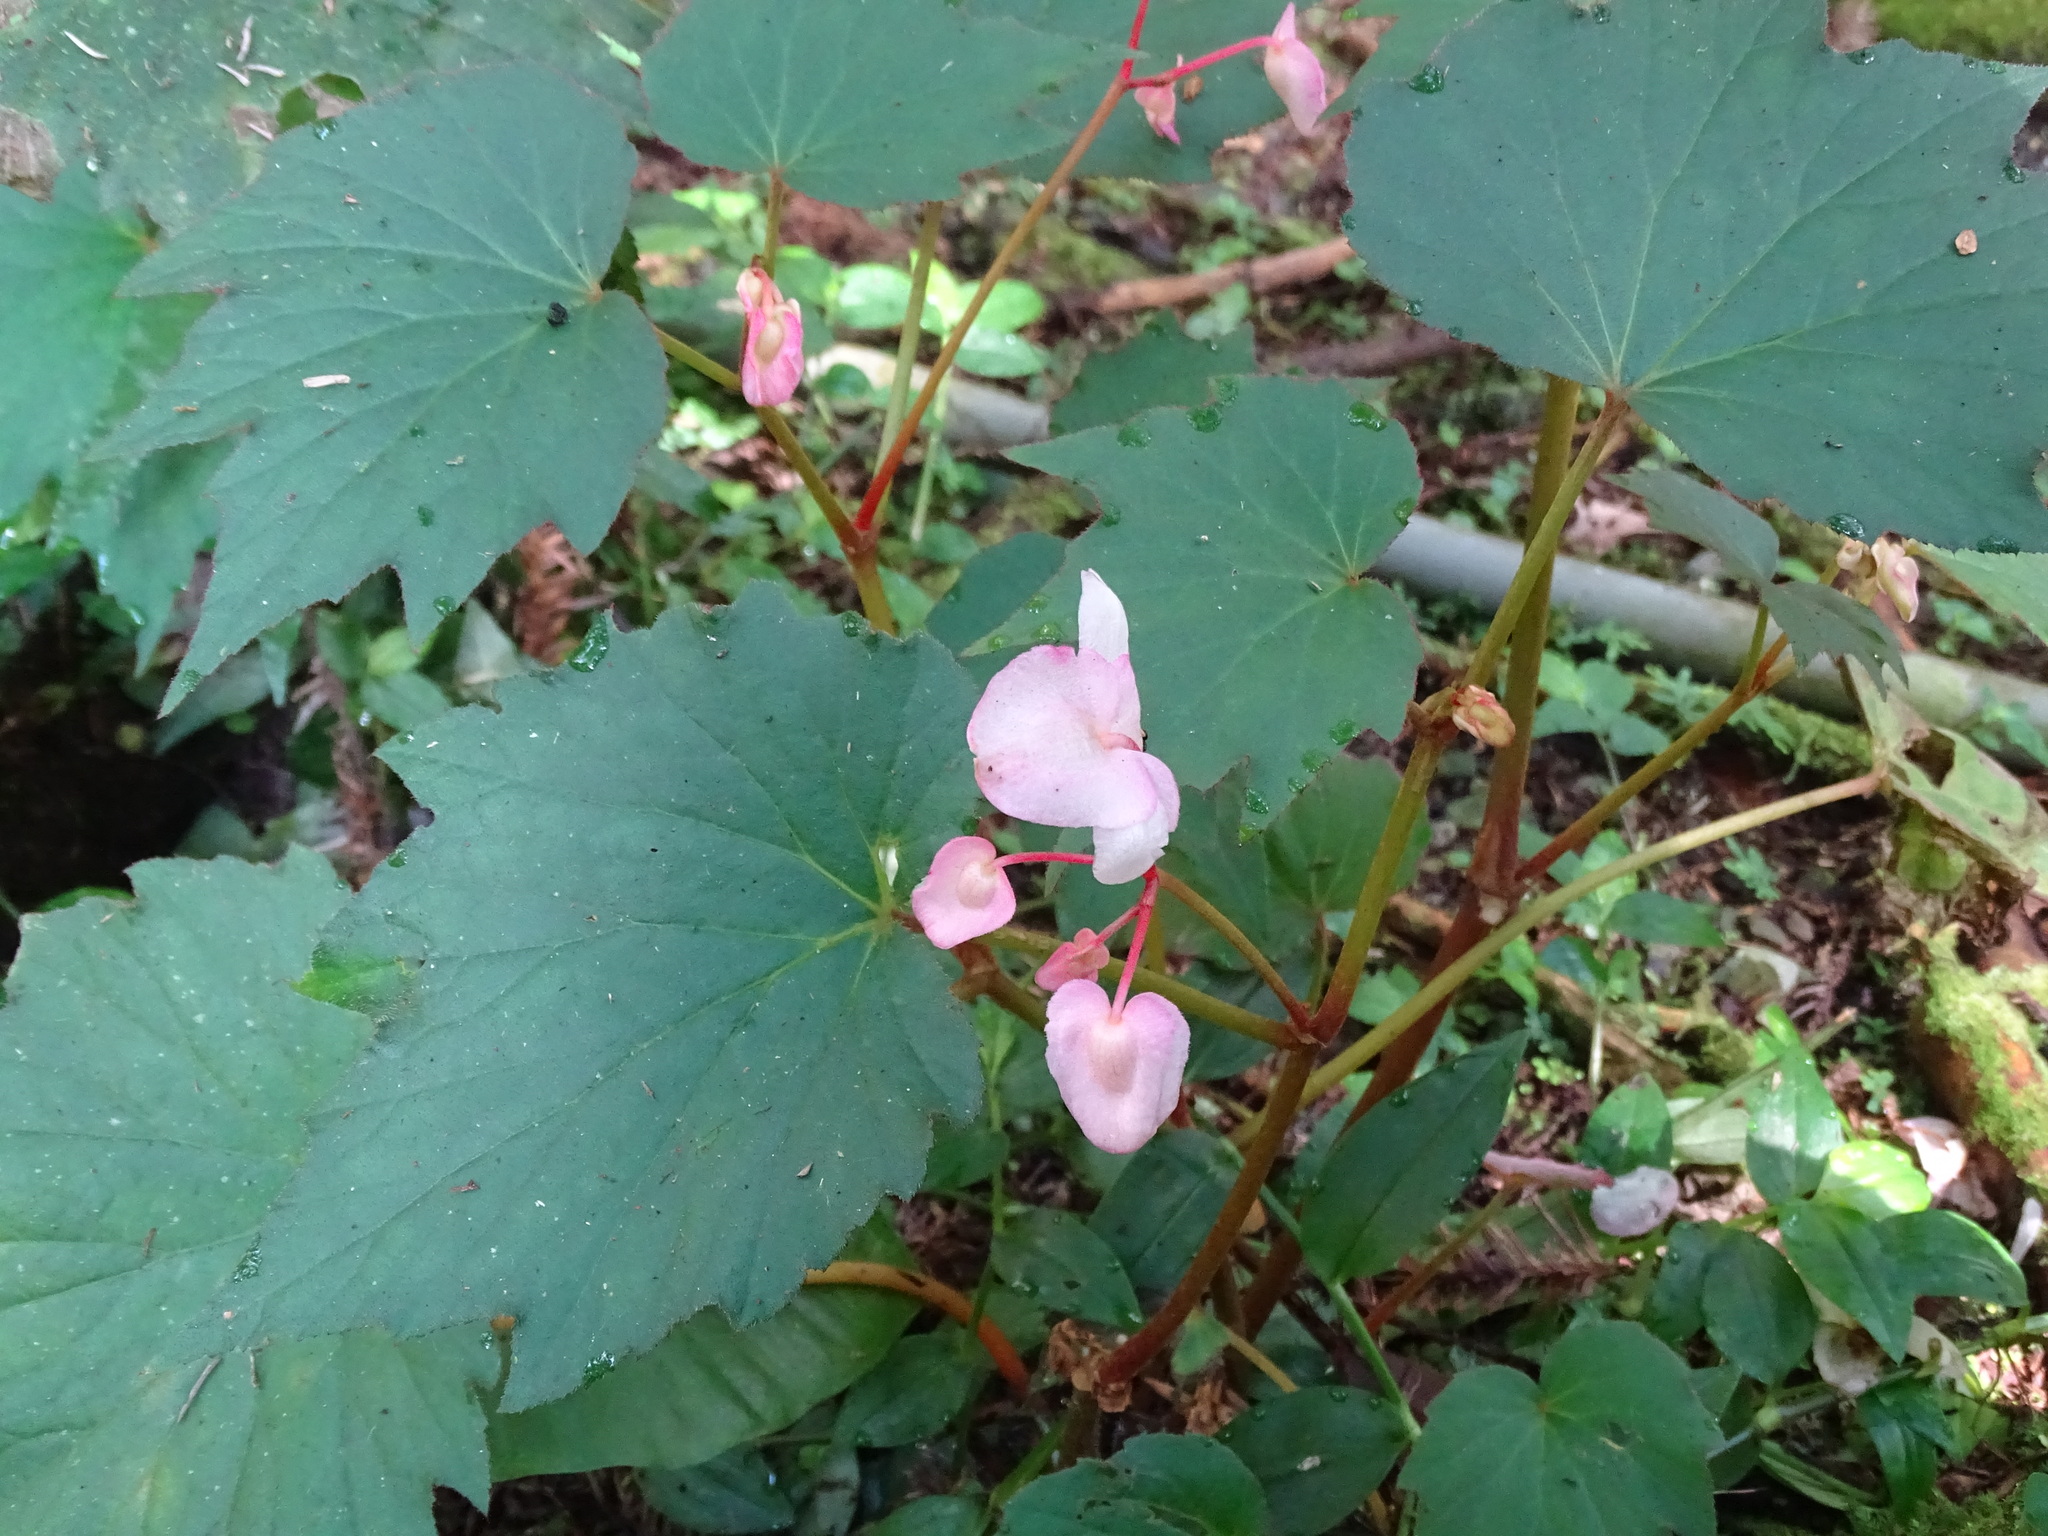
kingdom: Plantae
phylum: Tracheophyta
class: Magnoliopsida
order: Cucurbitales
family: Begoniaceae
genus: Begonia
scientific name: Begonia palmata
